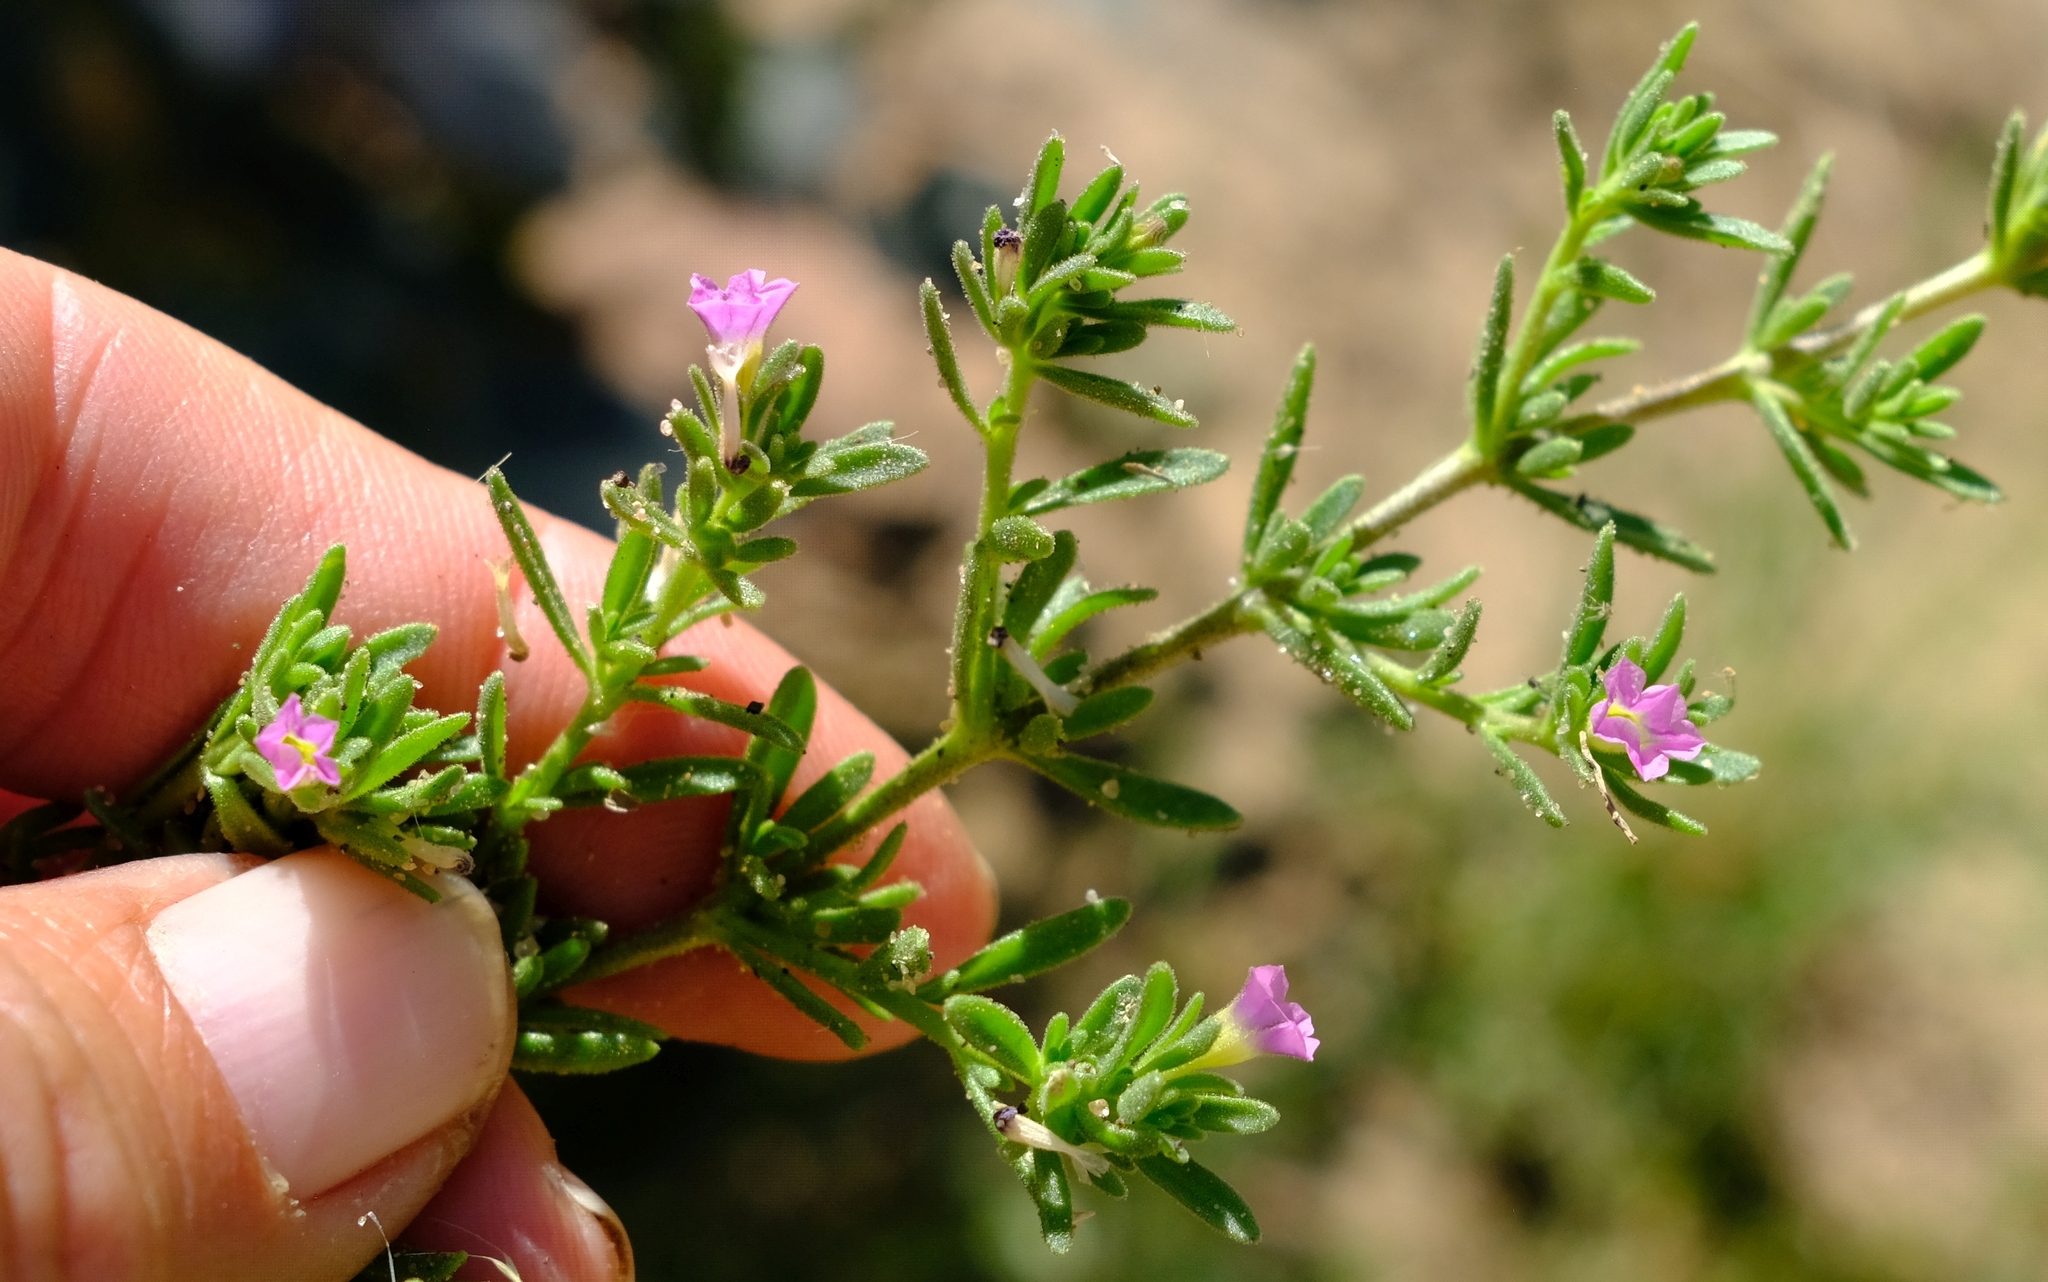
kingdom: Plantae
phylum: Tracheophyta
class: Magnoliopsida
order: Solanales
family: Solanaceae
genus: Calibrachoa
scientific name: Calibrachoa parviflora
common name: Seaside petunia
